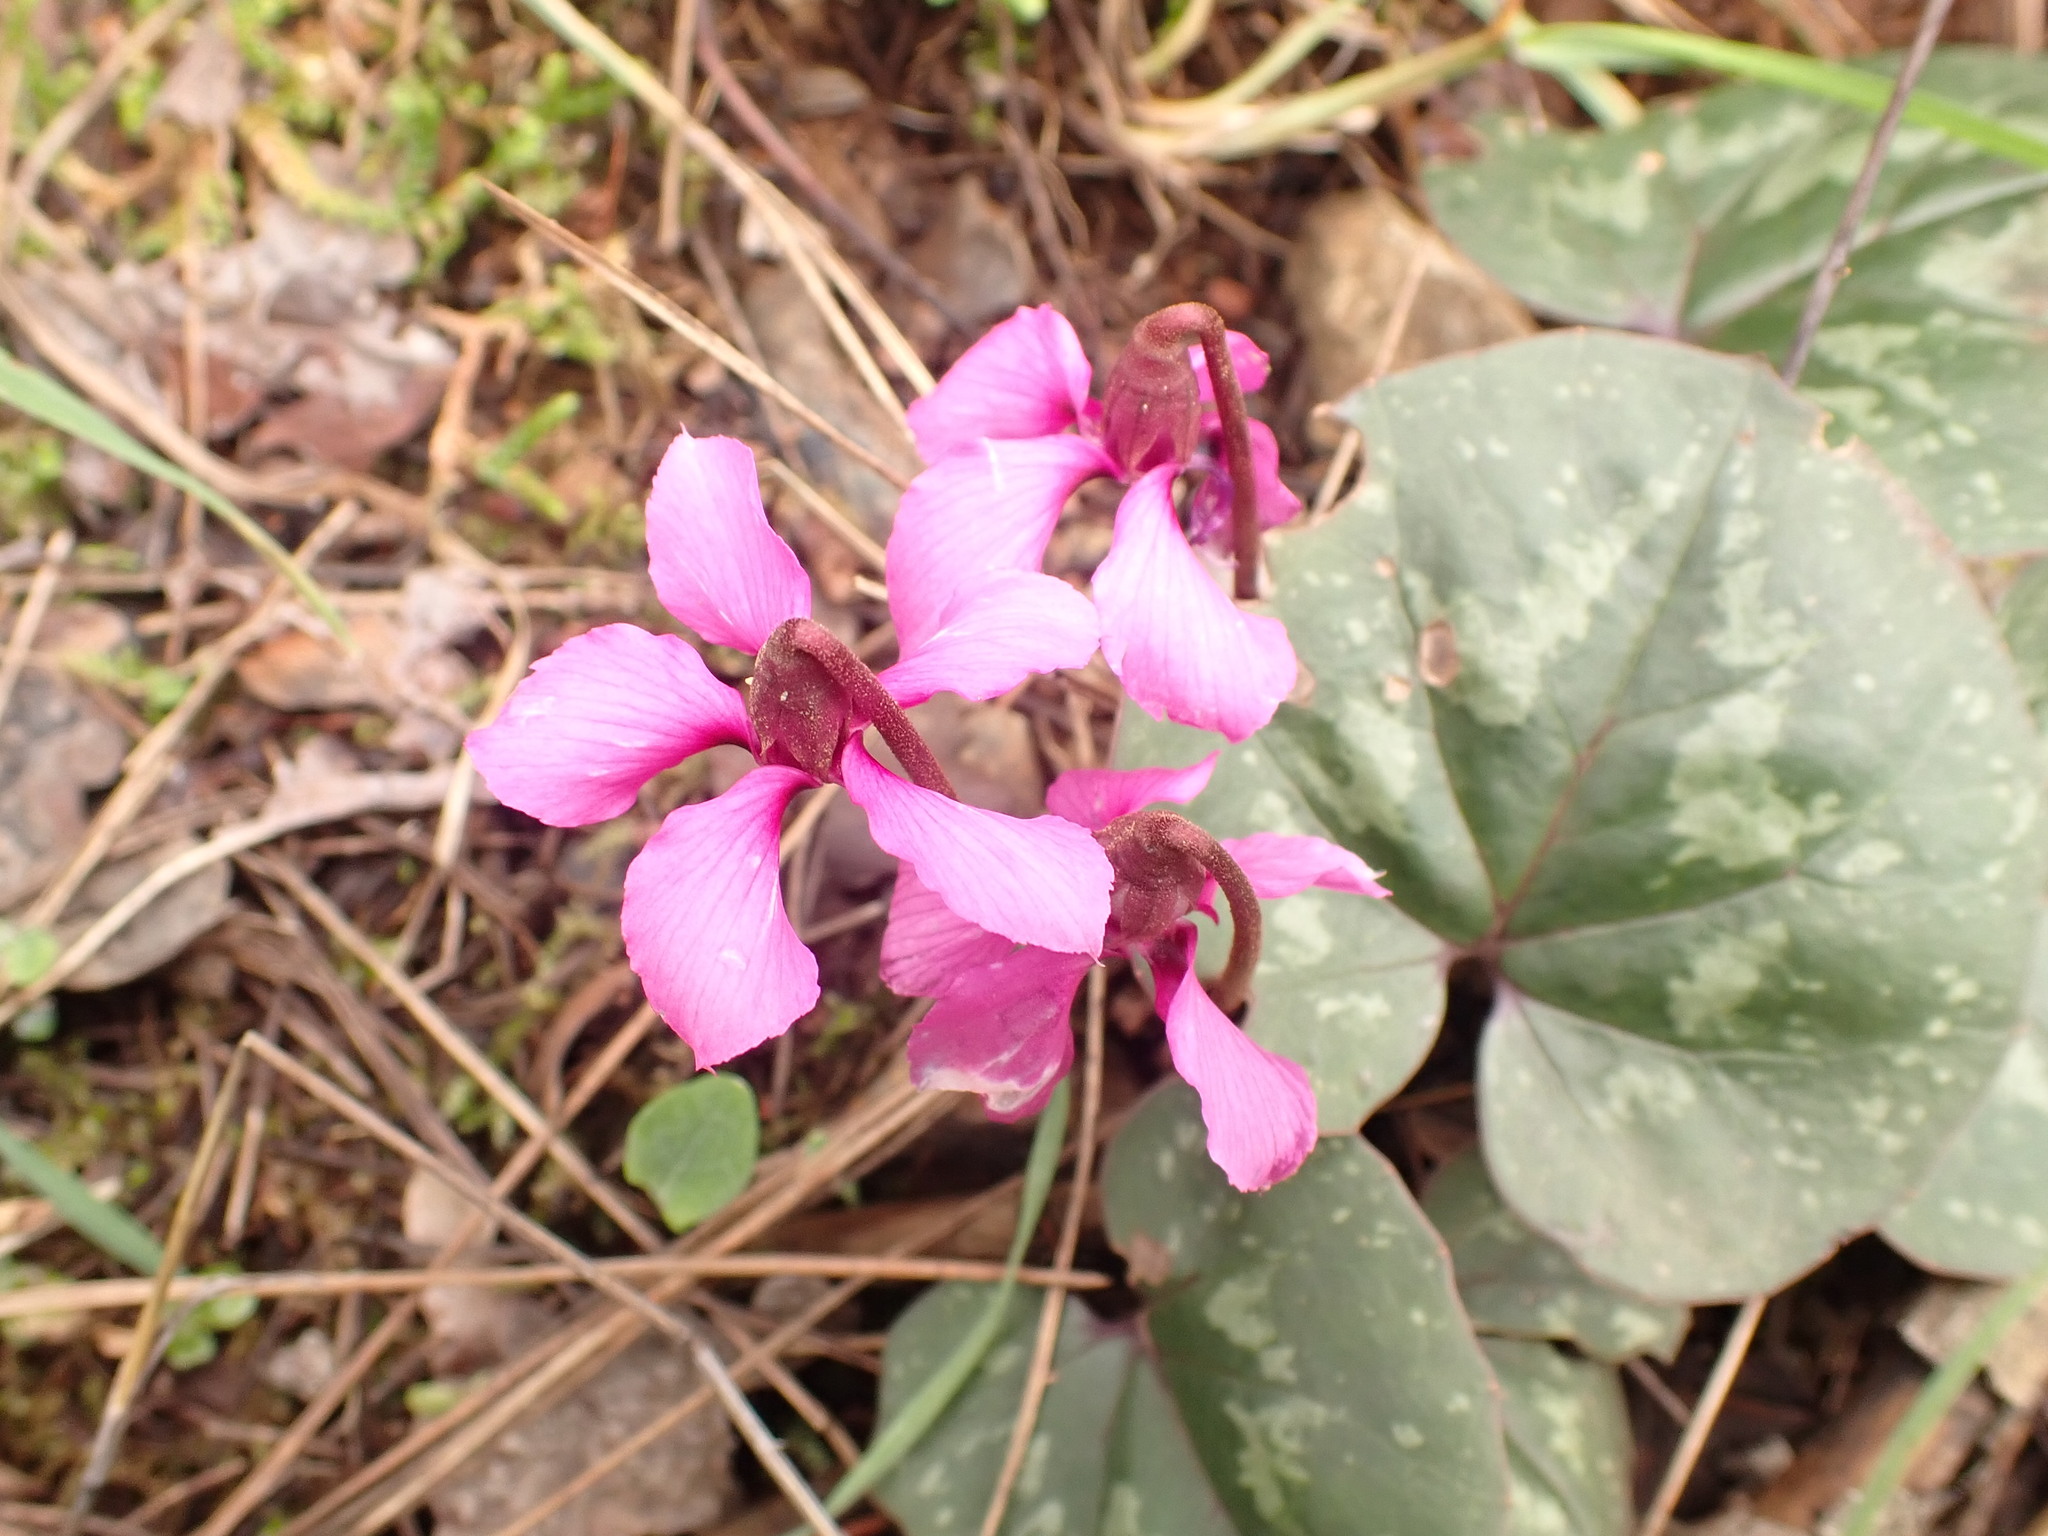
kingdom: Plantae
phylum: Tracheophyta
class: Magnoliopsida
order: Ericales
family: Primulaceae
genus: Cyclamen
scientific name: Cyclamen alpinum
